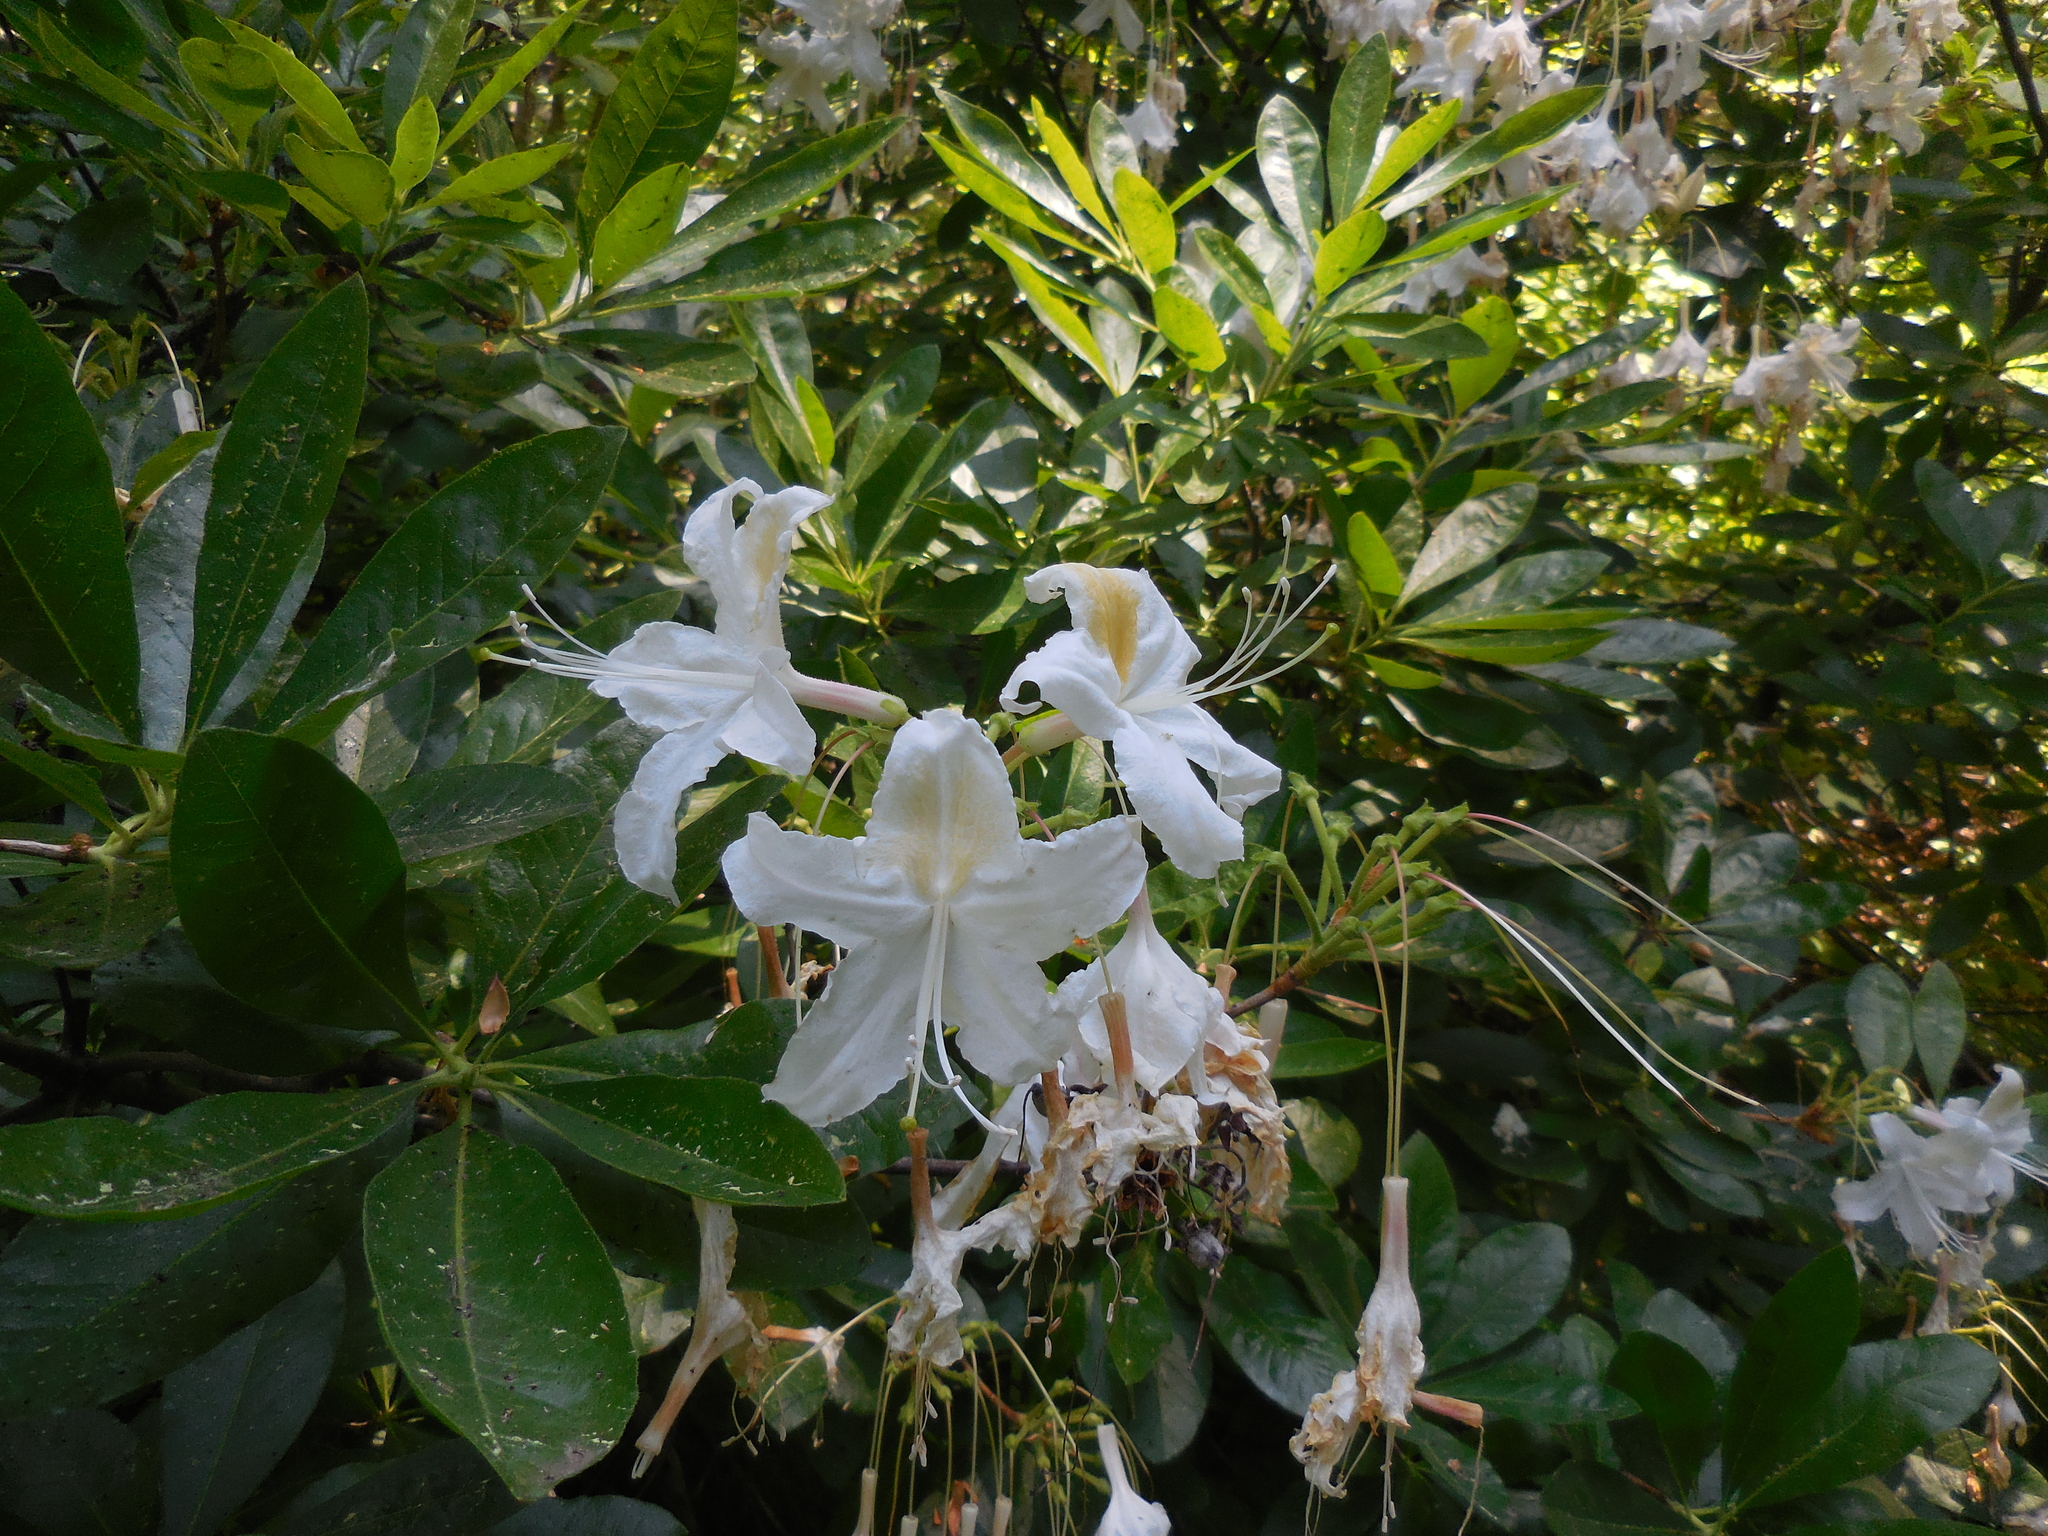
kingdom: Plantae
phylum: Tracheophyta
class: Magnoliopsida
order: Ericales
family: Ericaceae
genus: Rhododendron
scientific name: Rhododendron occidentale
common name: Western azalea
